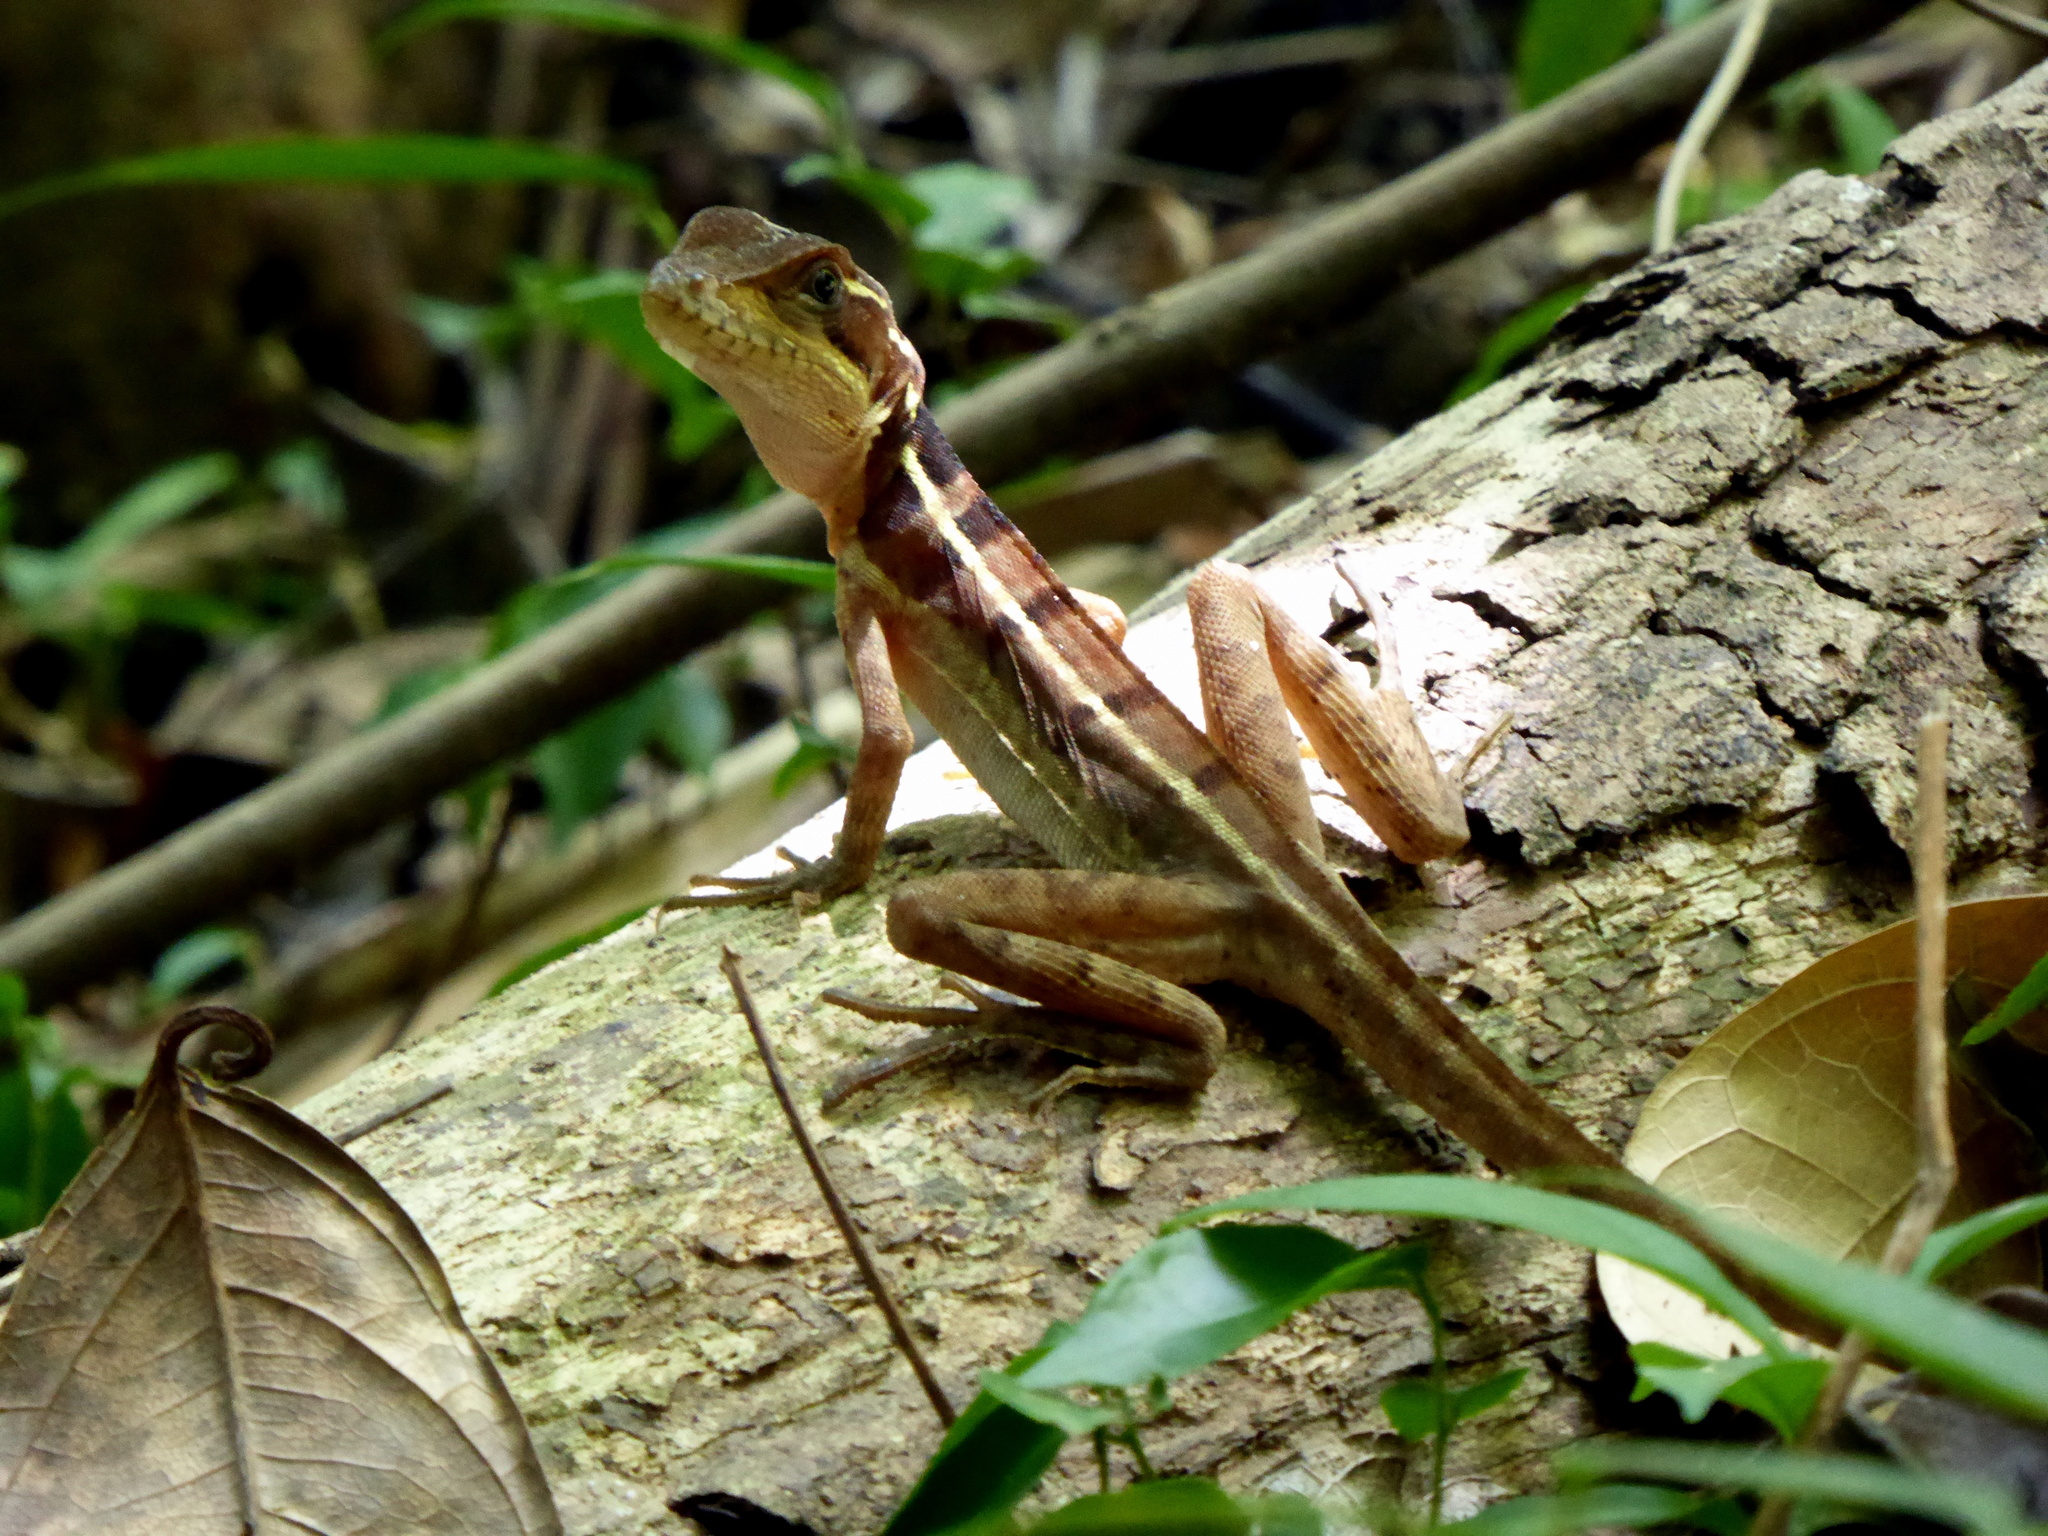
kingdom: Animalia
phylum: Chordata
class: Squamata
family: Corytophanidae
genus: Basiliscus
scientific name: Basiliscus vittatus
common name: Brown basilisk
